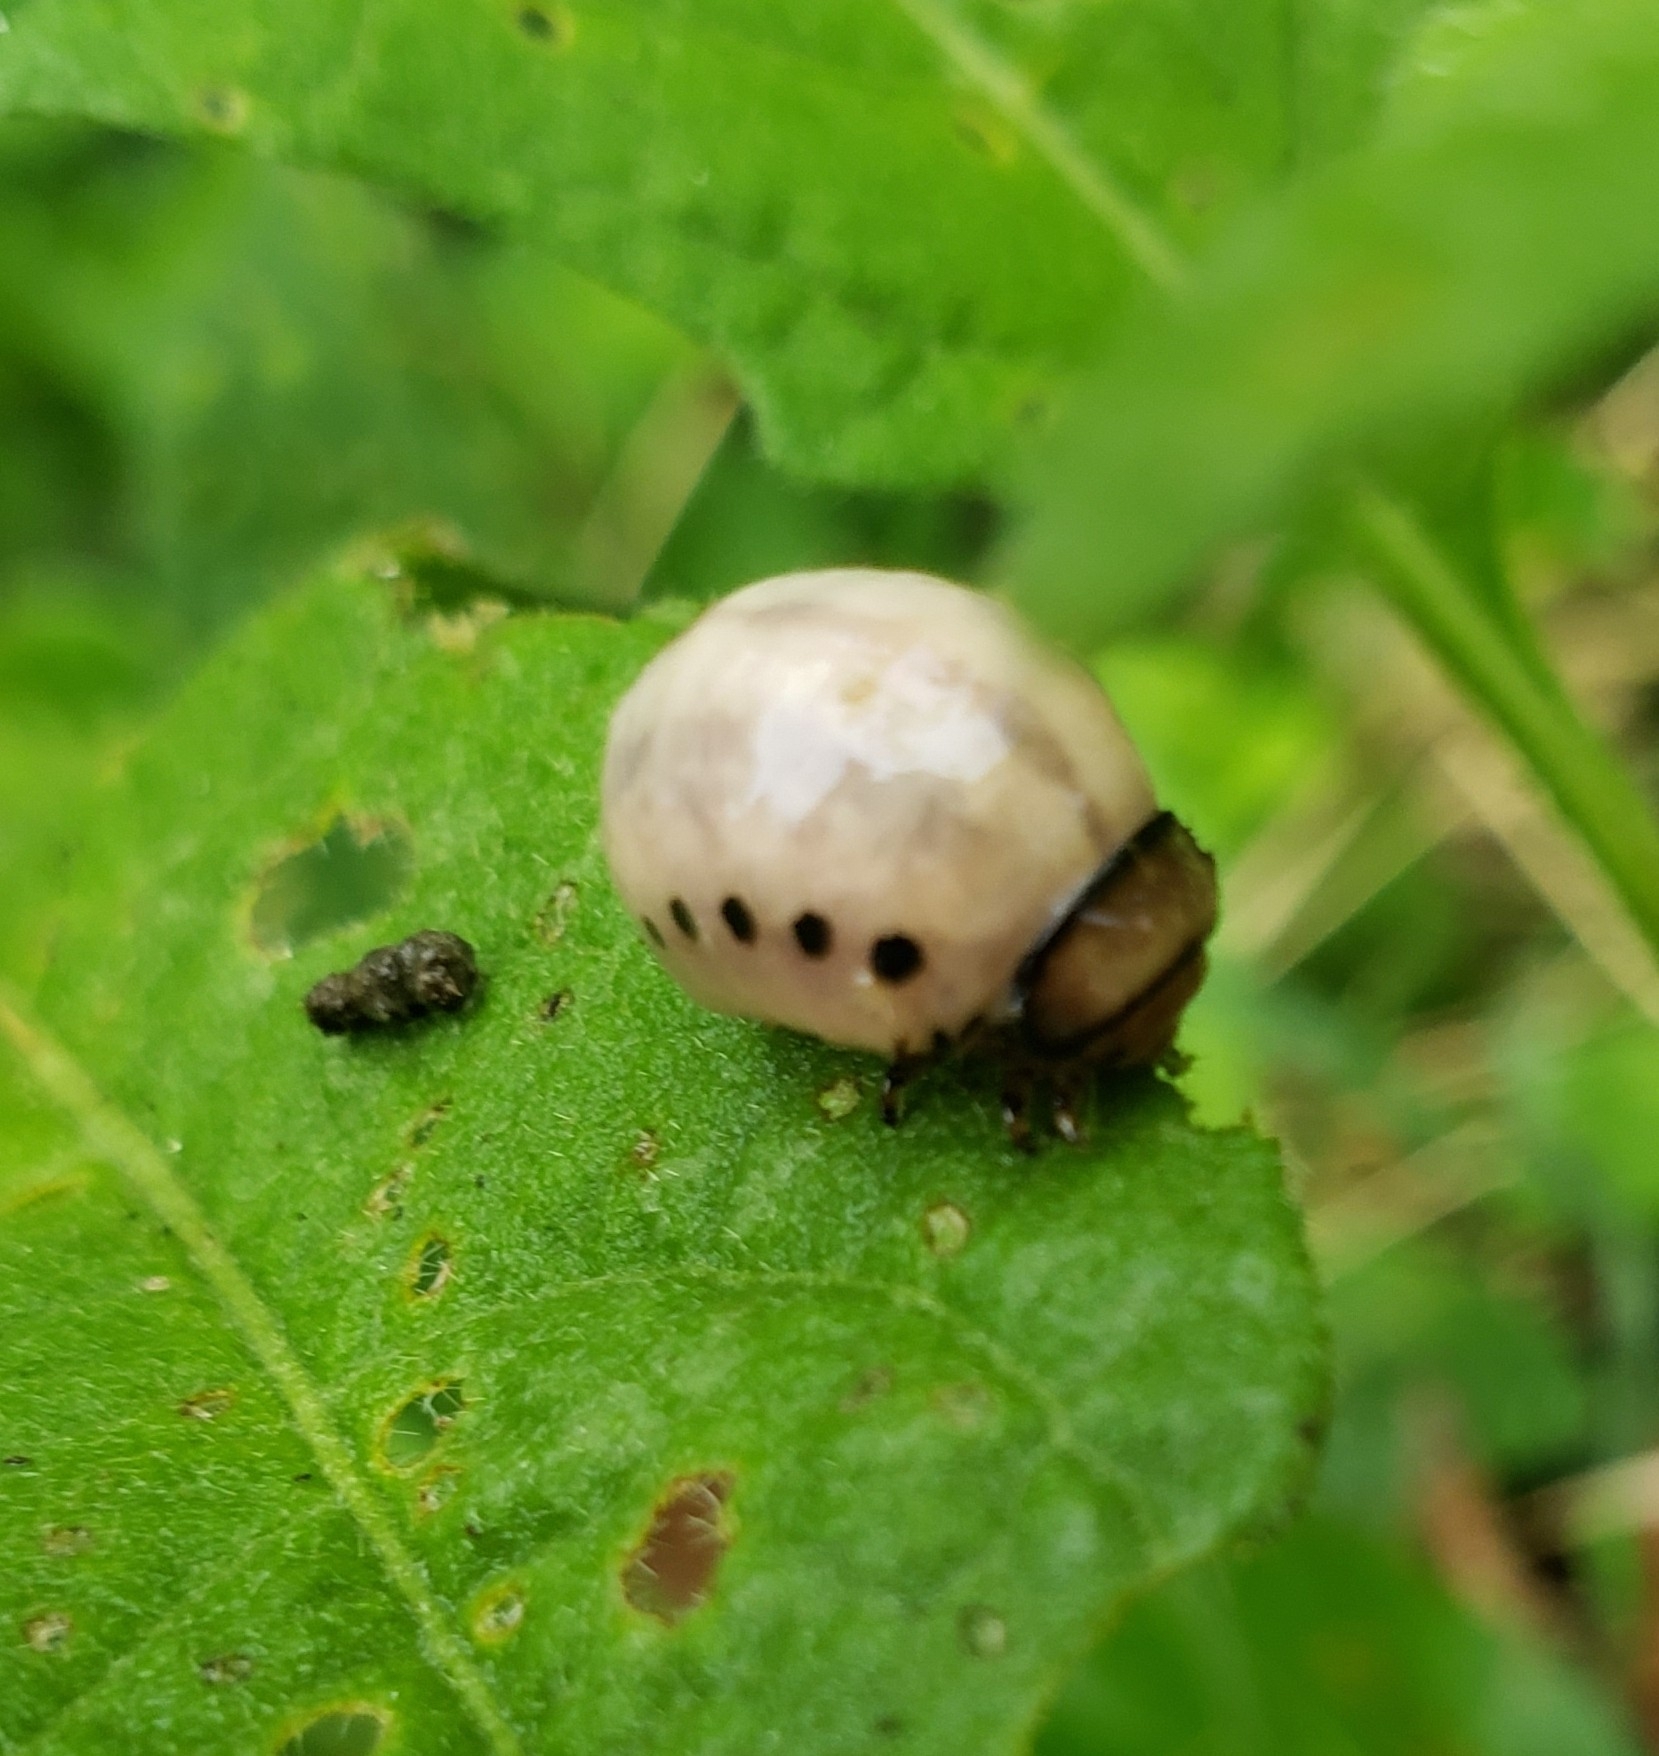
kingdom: Animalia
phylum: Arthropoda
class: Insecta
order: Coleoptera
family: Chrysomelidae
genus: Leptinotarsa
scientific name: Leptinotarsa juncta
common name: False potato beetle
